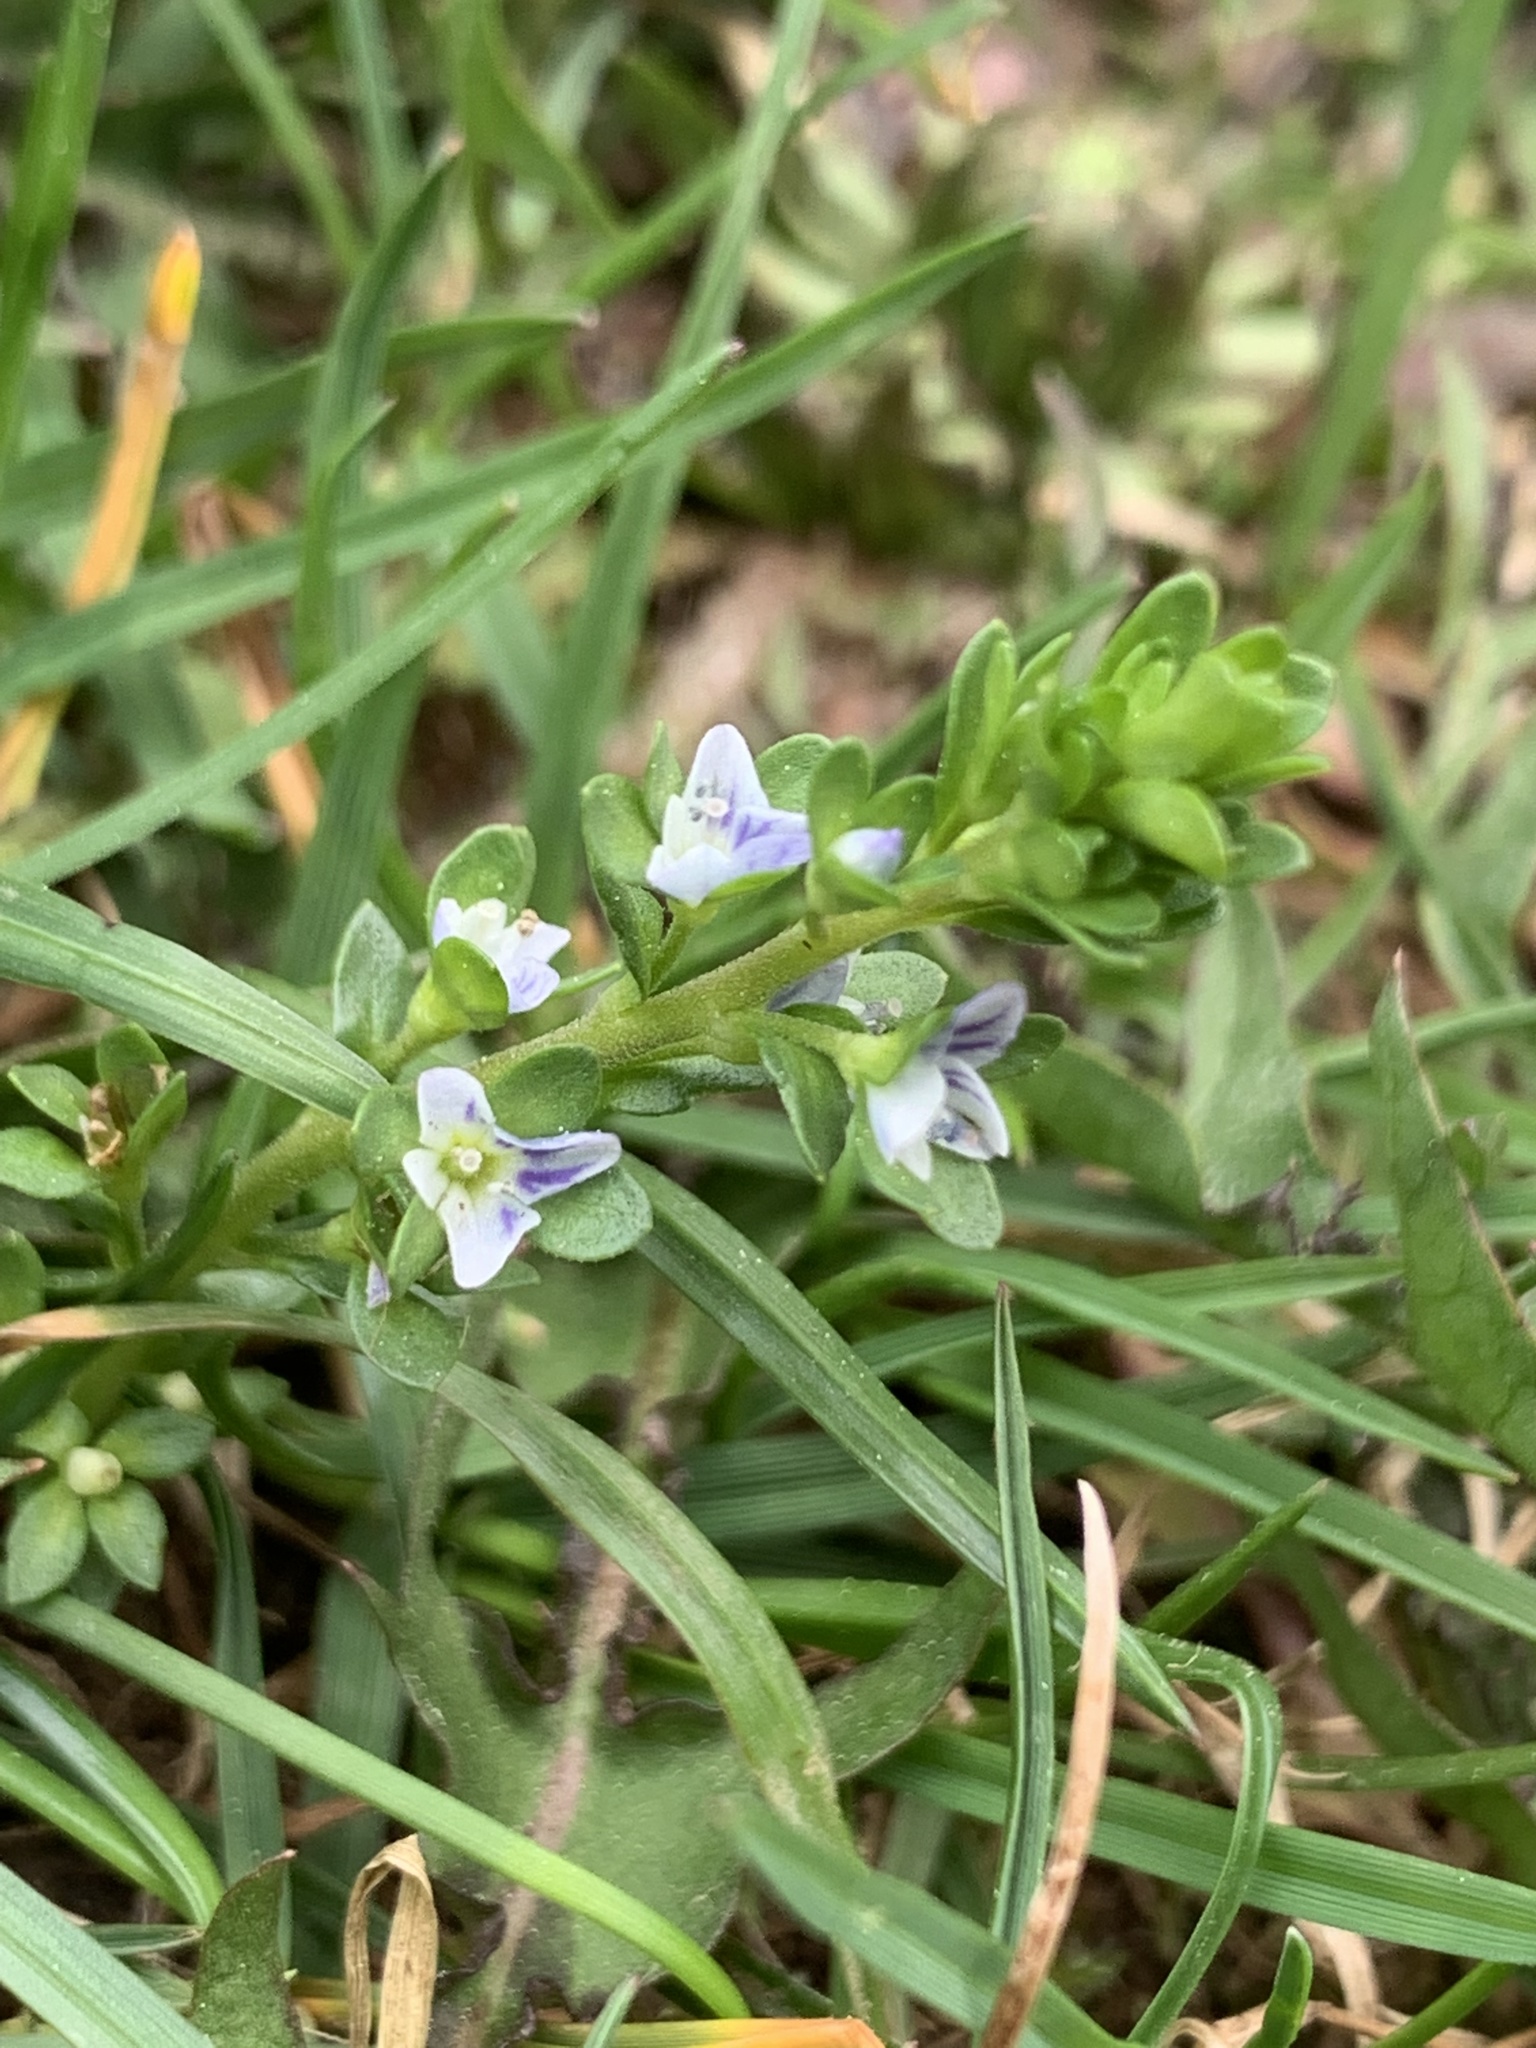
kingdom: Plantae
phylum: Tracheophyta
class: Magnoliopsida
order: Lamiales
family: Plantaginaceae
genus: Veronica
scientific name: Veronica serpyllifolia
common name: Thyme-leaved speedwell
